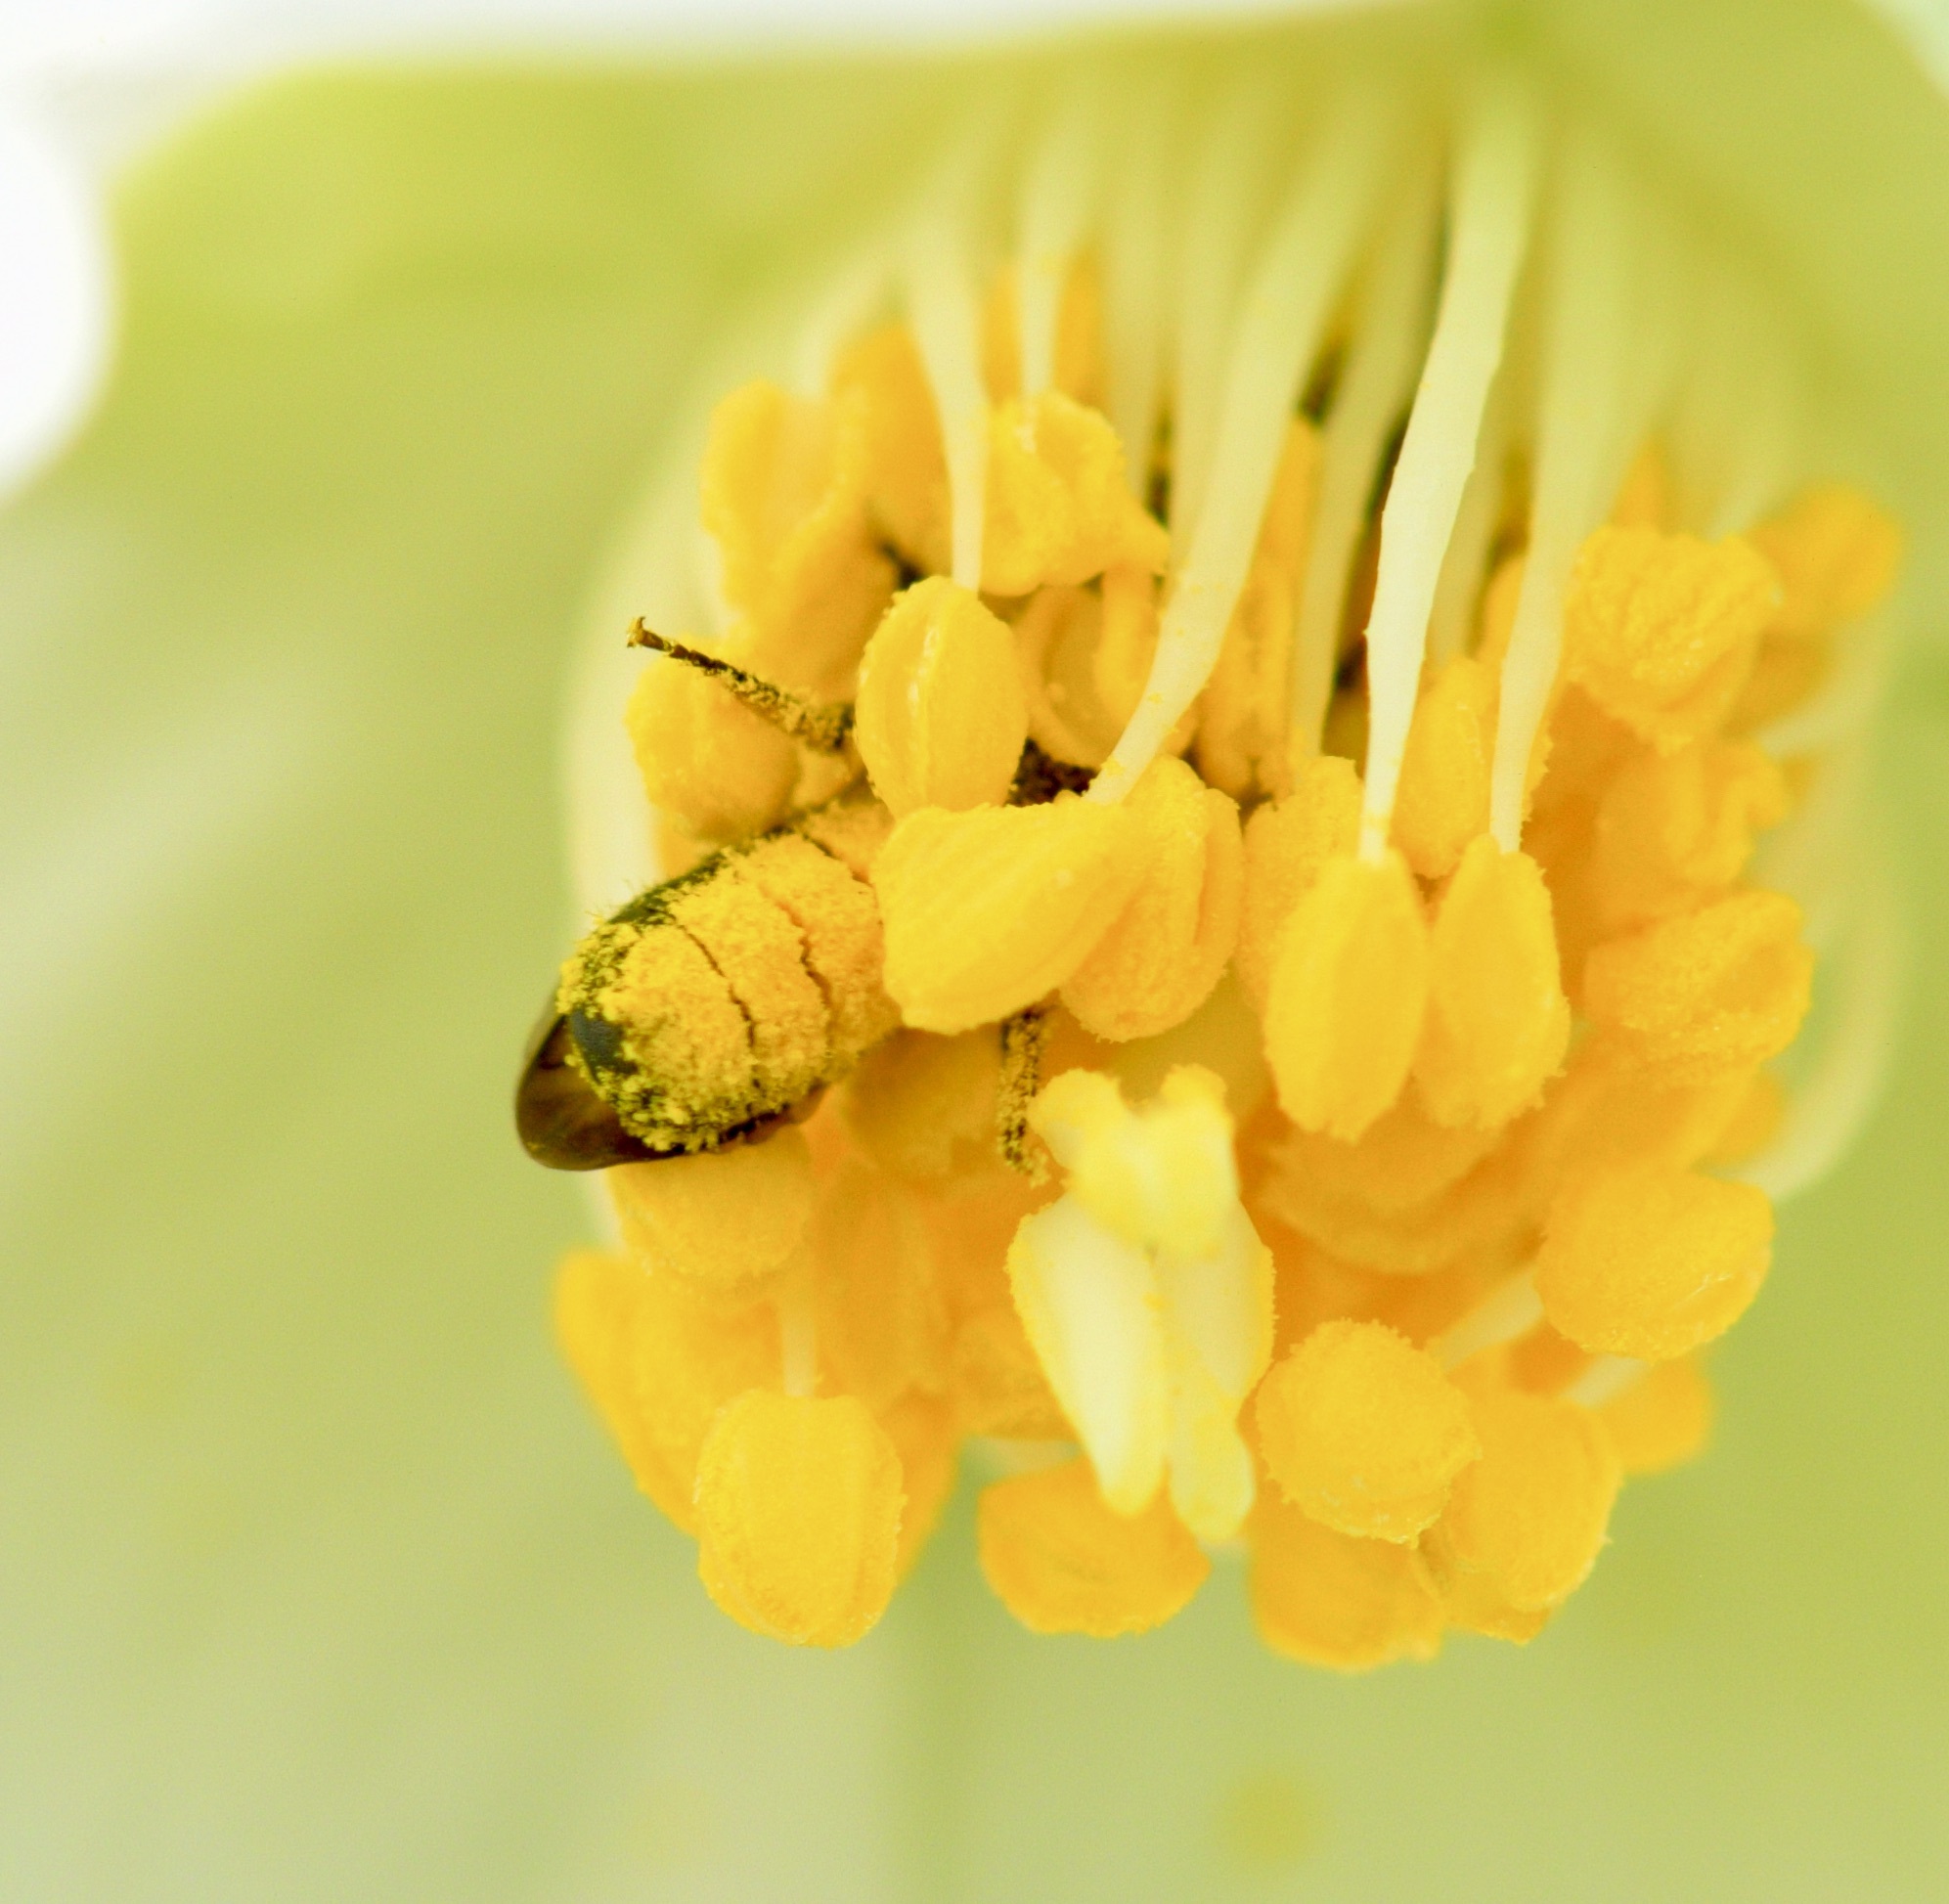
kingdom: Animalia
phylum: Arthropoda
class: Insecta
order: Hymenoptera
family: Megachilidae
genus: Chelostoma
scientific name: Chelostoma philadelphi
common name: Mock-orange scissor bee
